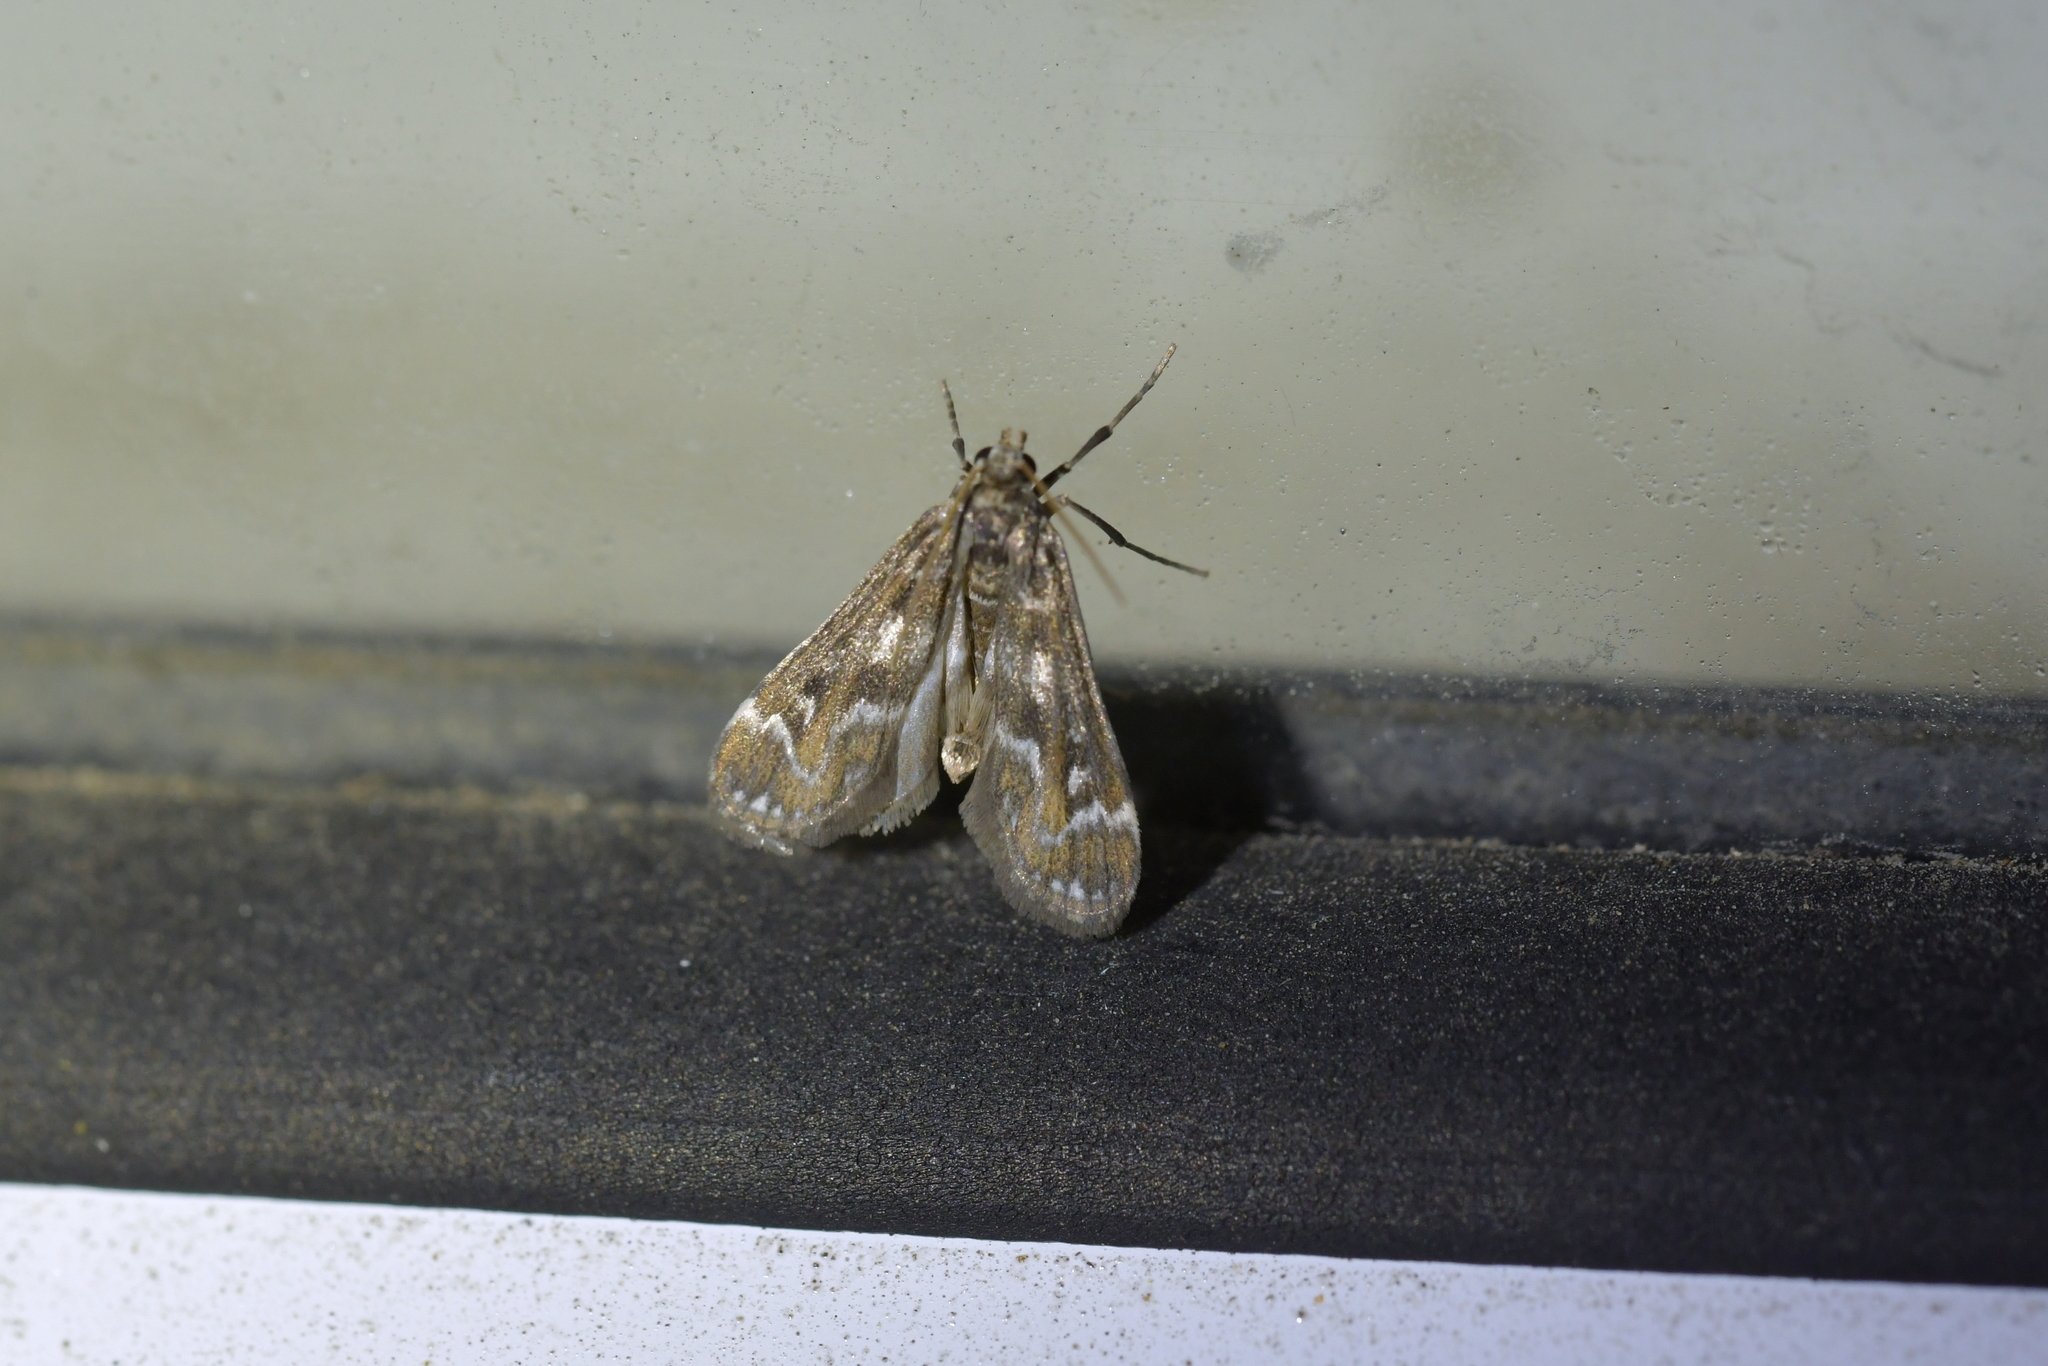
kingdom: Animalia
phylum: Arthropoda
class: Insecta
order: Lepidoptera
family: Crambidae
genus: Hygraula
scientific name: Hygraula nitens
